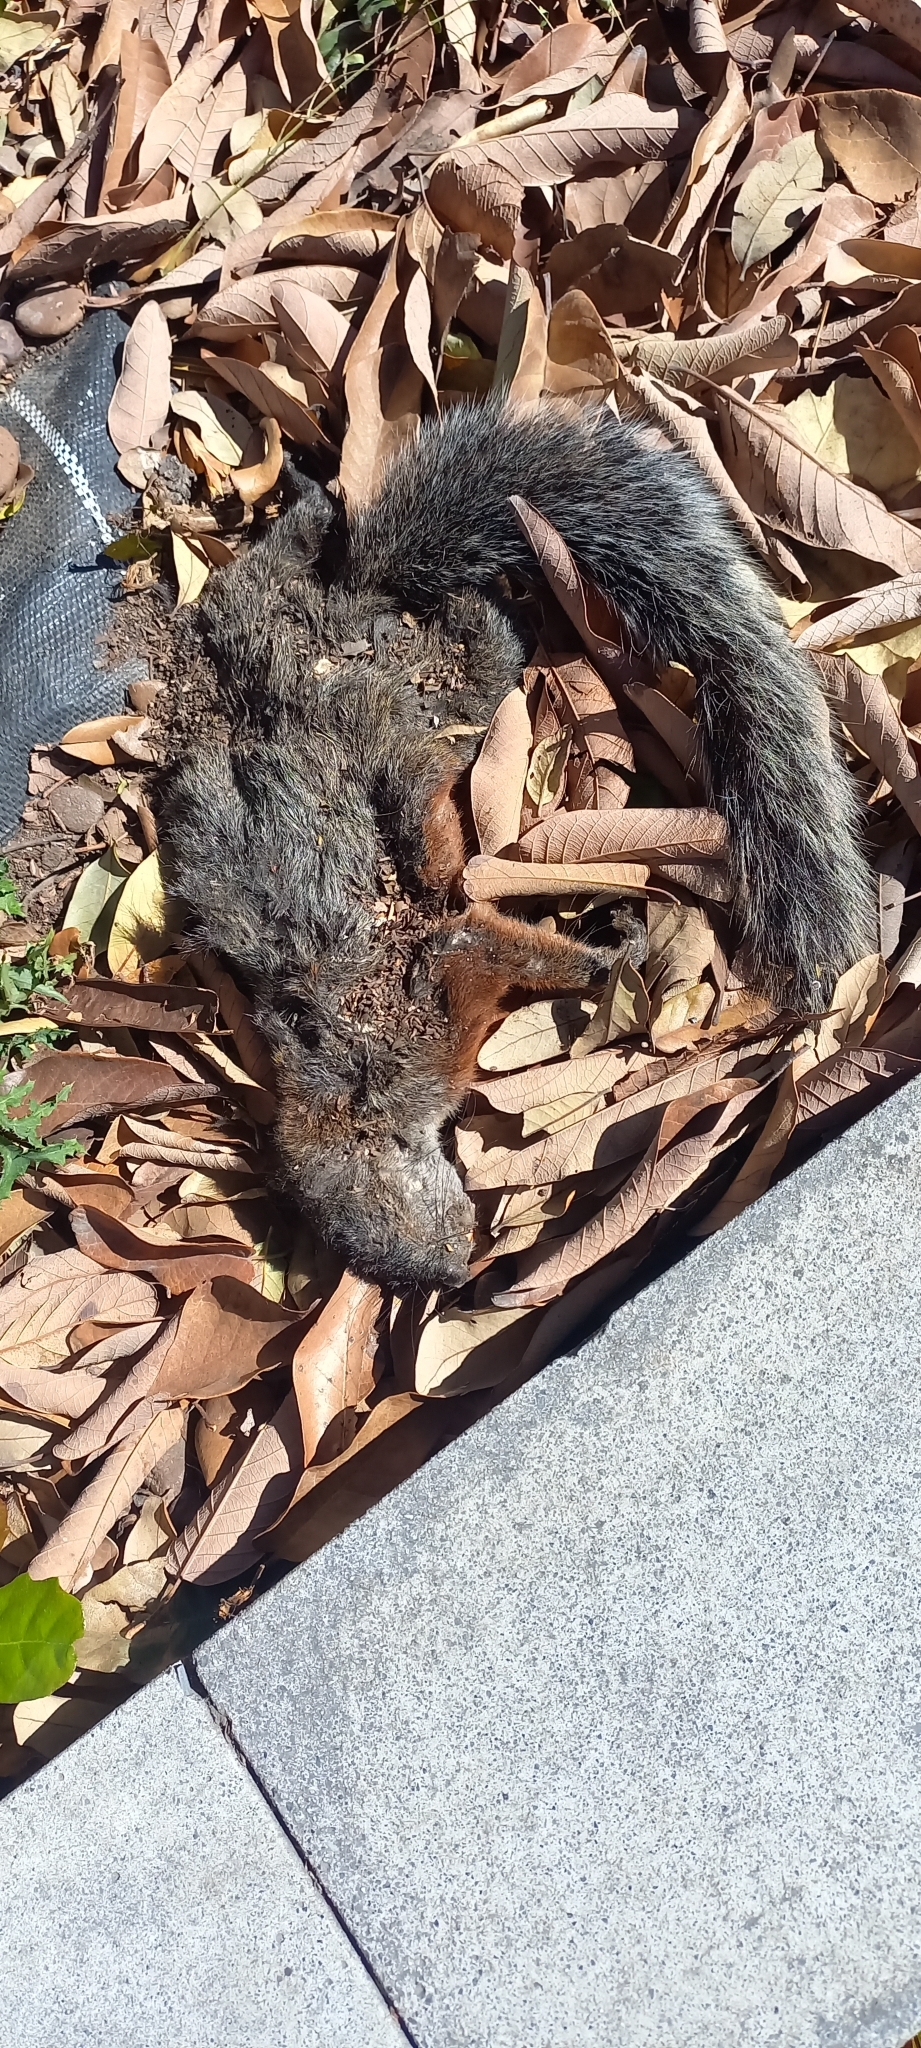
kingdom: Animalia
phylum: Chordata
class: Mammalia
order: Rodentia
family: Sciuridae
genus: Sciurus
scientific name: Sciurus aureogaster
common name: Red-bellied squirrel
